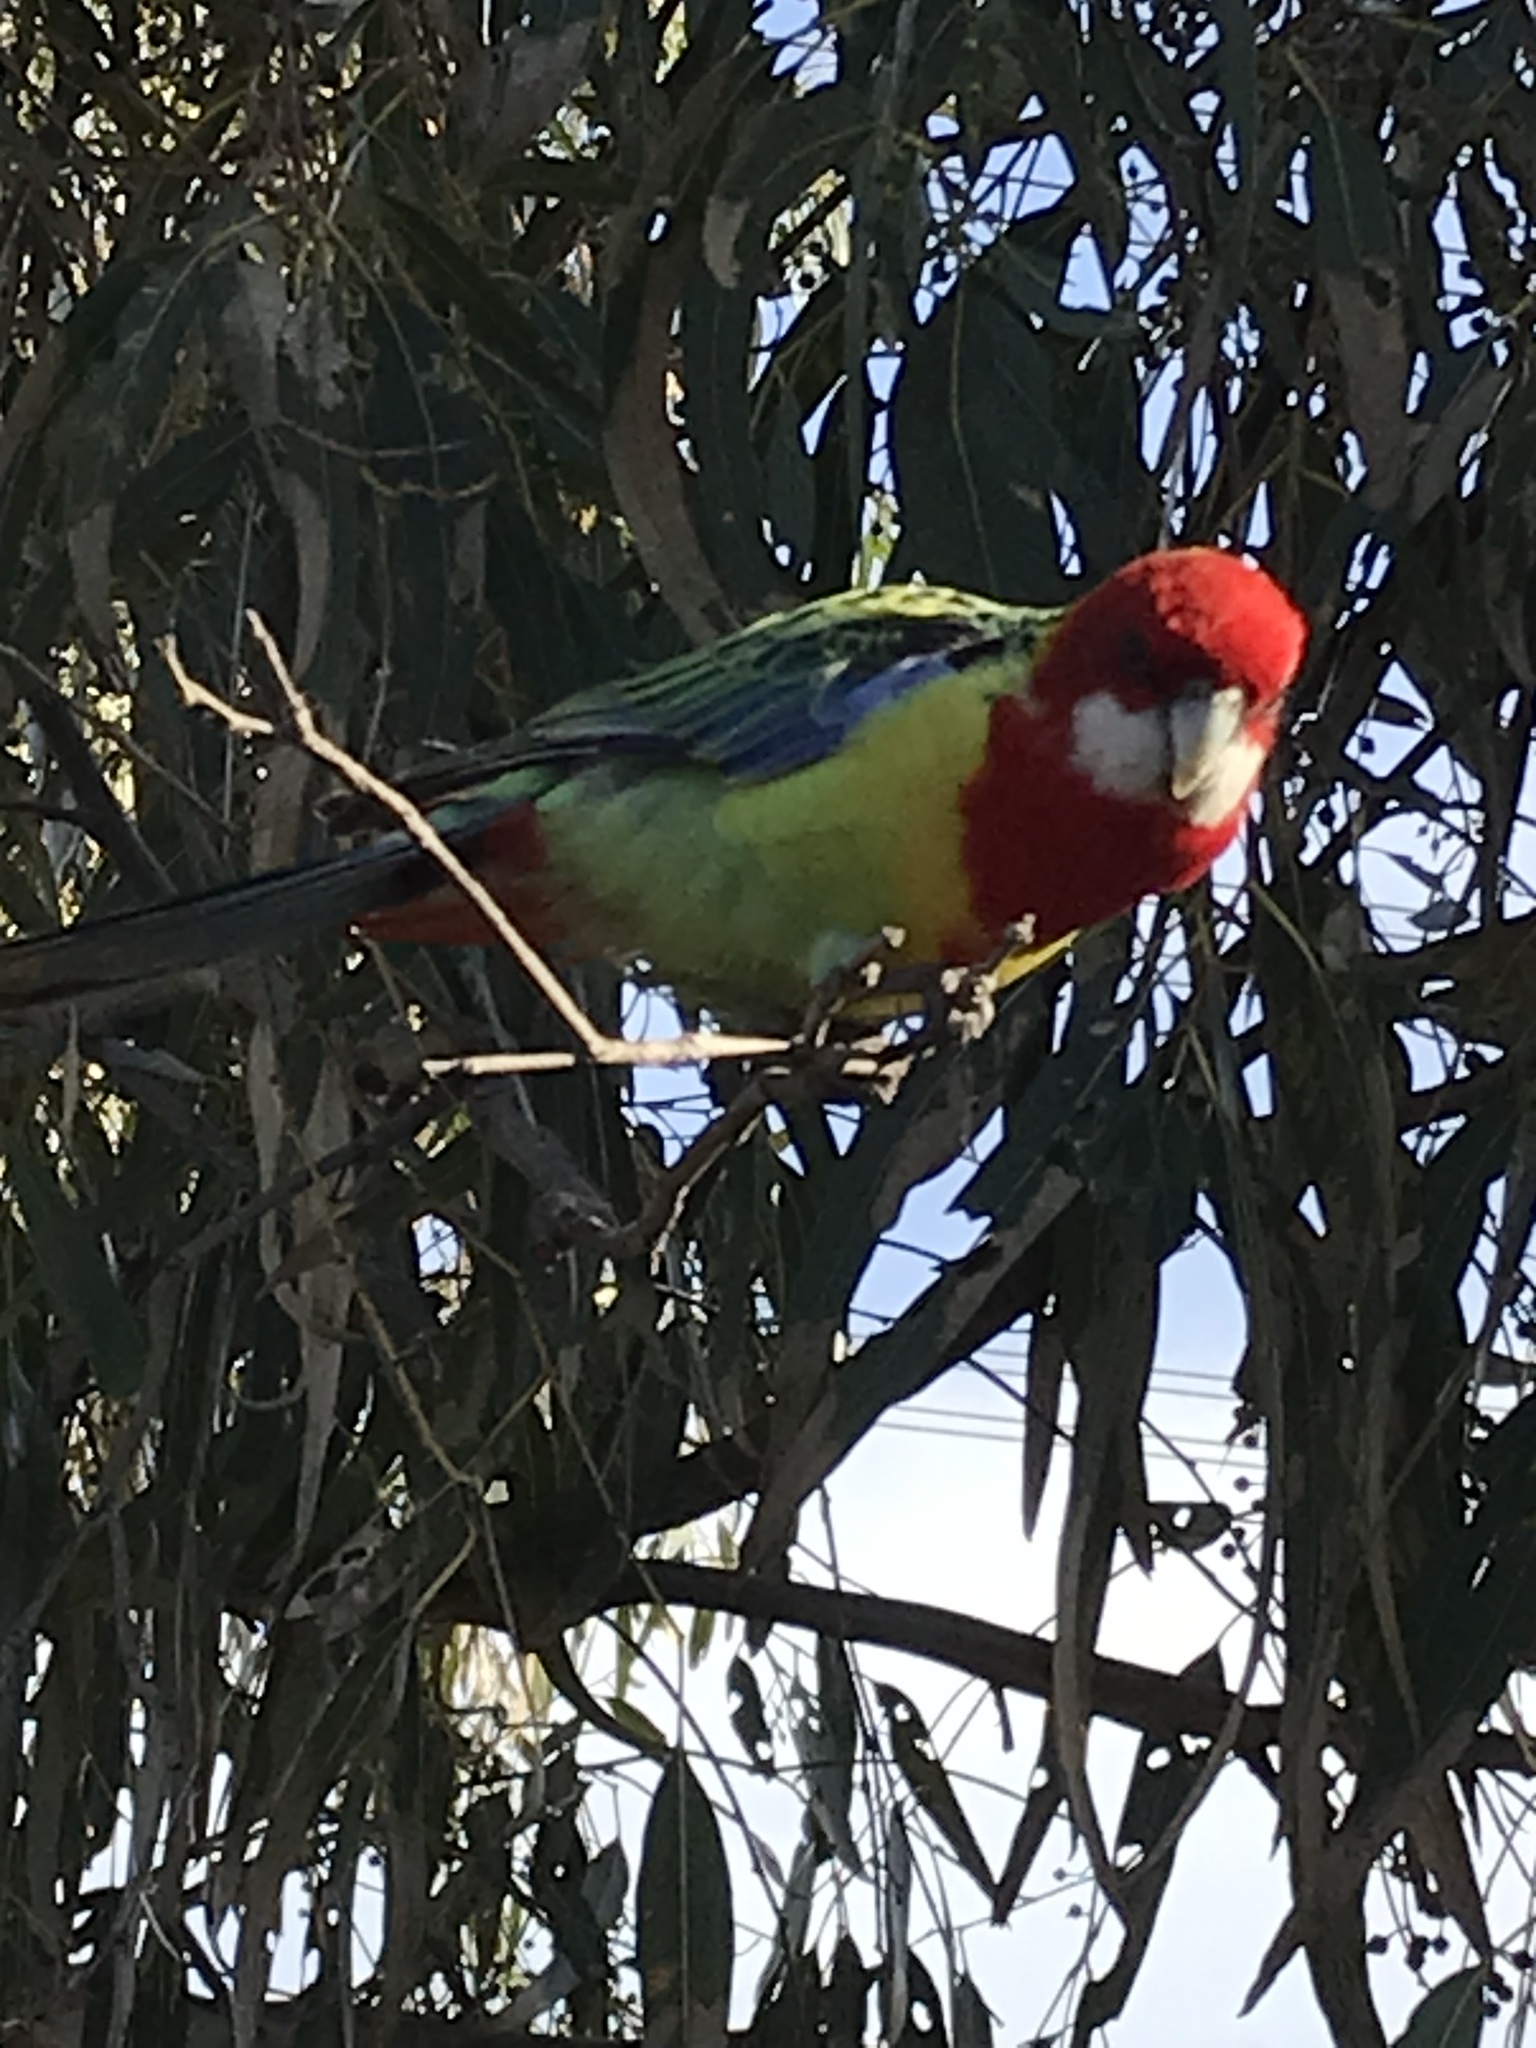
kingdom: Animalia
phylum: Chordata
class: Aves
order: Psittaciformes
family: Psittacidae
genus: Platycercus
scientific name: Platycercus eximius
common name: Eastern rosella
